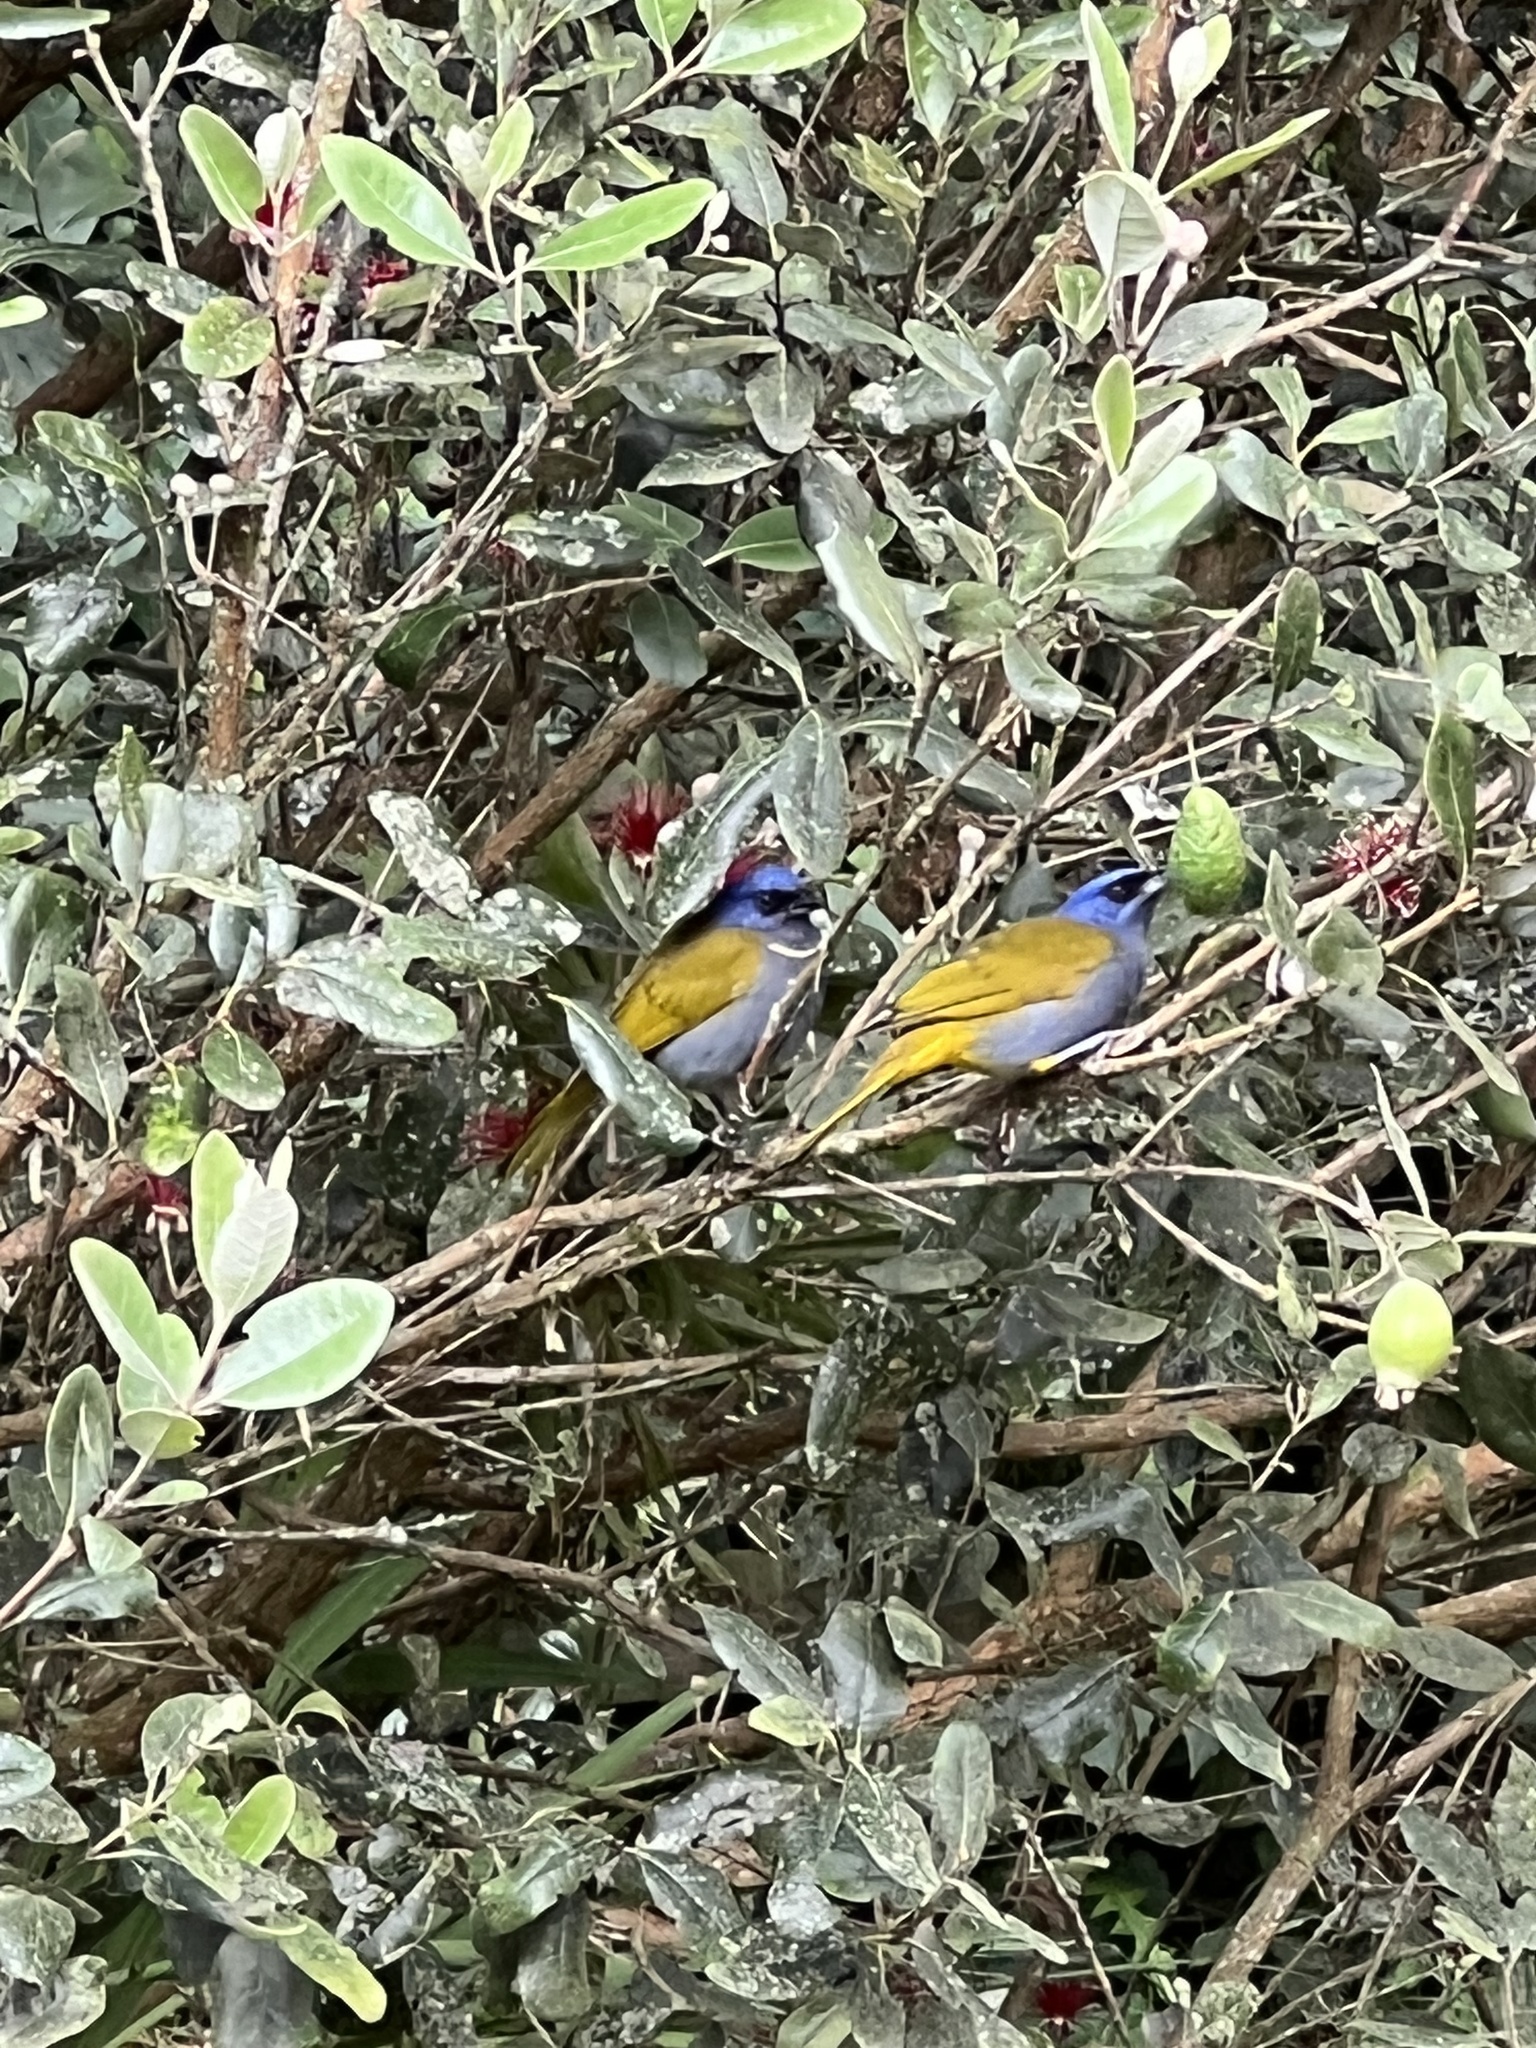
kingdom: Animalia
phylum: Chordata
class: Aves
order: Passeriformes
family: Thraupidae
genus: Sporathraupis
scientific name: Sporathraupis cyanocephala
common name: Blue-capped tanager
